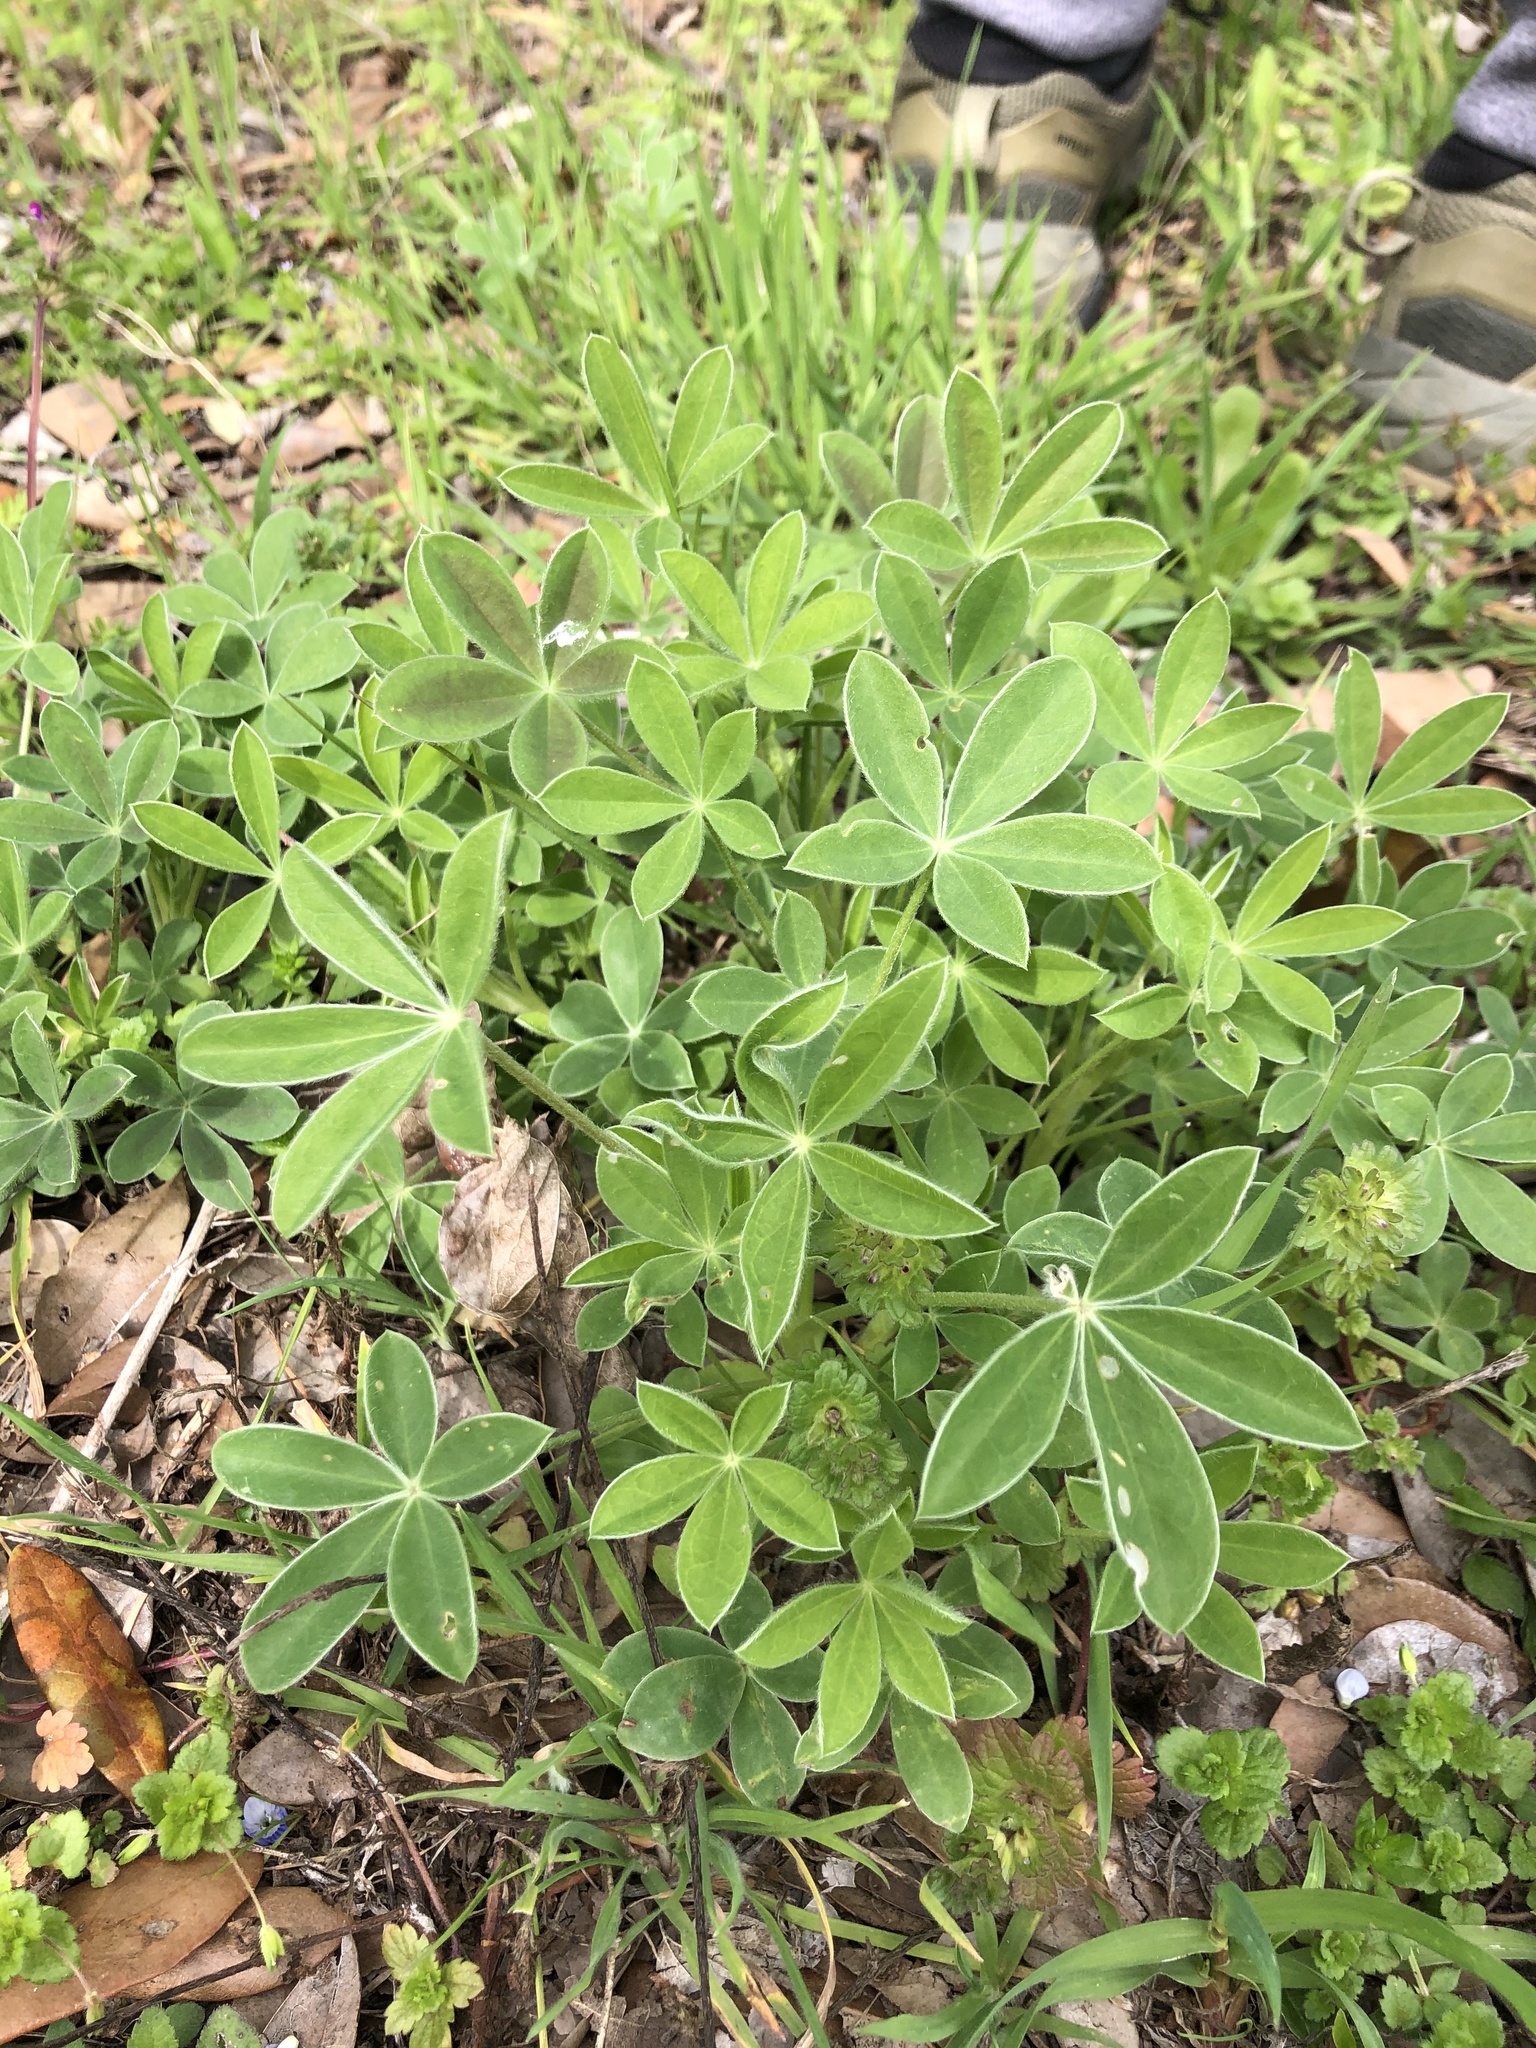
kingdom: Plantae
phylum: Tracheophyta
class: Magnoliopsida
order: Fabales
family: Fabaceae
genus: Lupinus
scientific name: Lupinus texensis
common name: Texas bluebonnet
